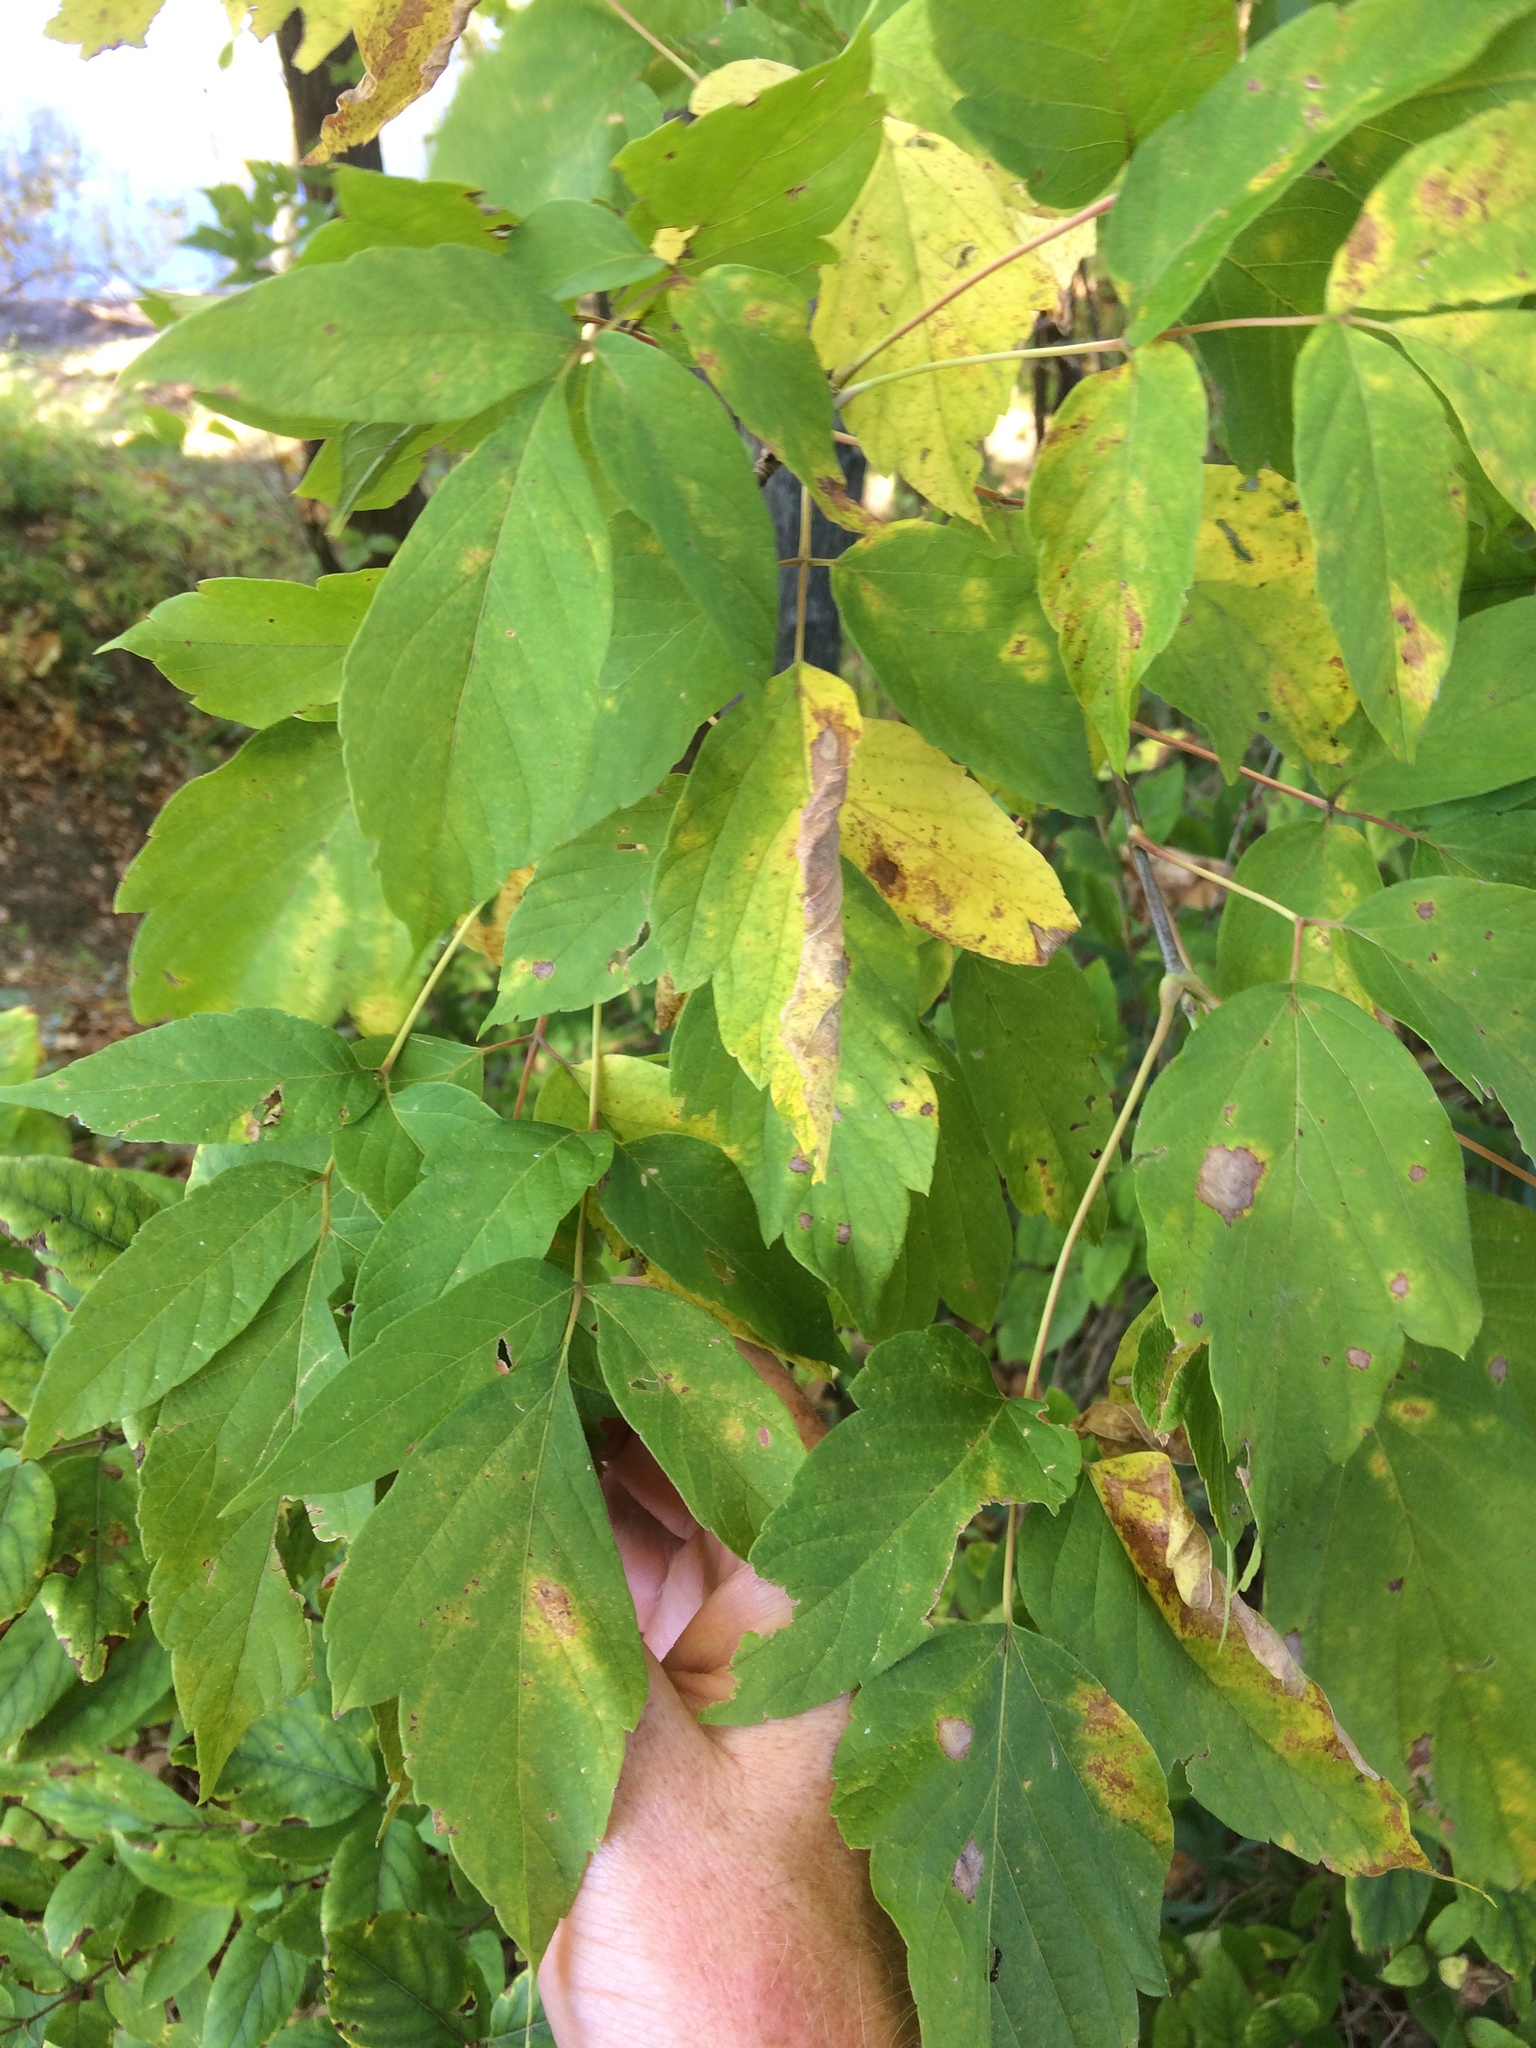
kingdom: Plantae
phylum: Tracheophyta
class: Magnoliopsida
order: Sapindales
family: Sapindaceae
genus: Acer
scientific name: Acer negundo
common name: Ashleaf maple
